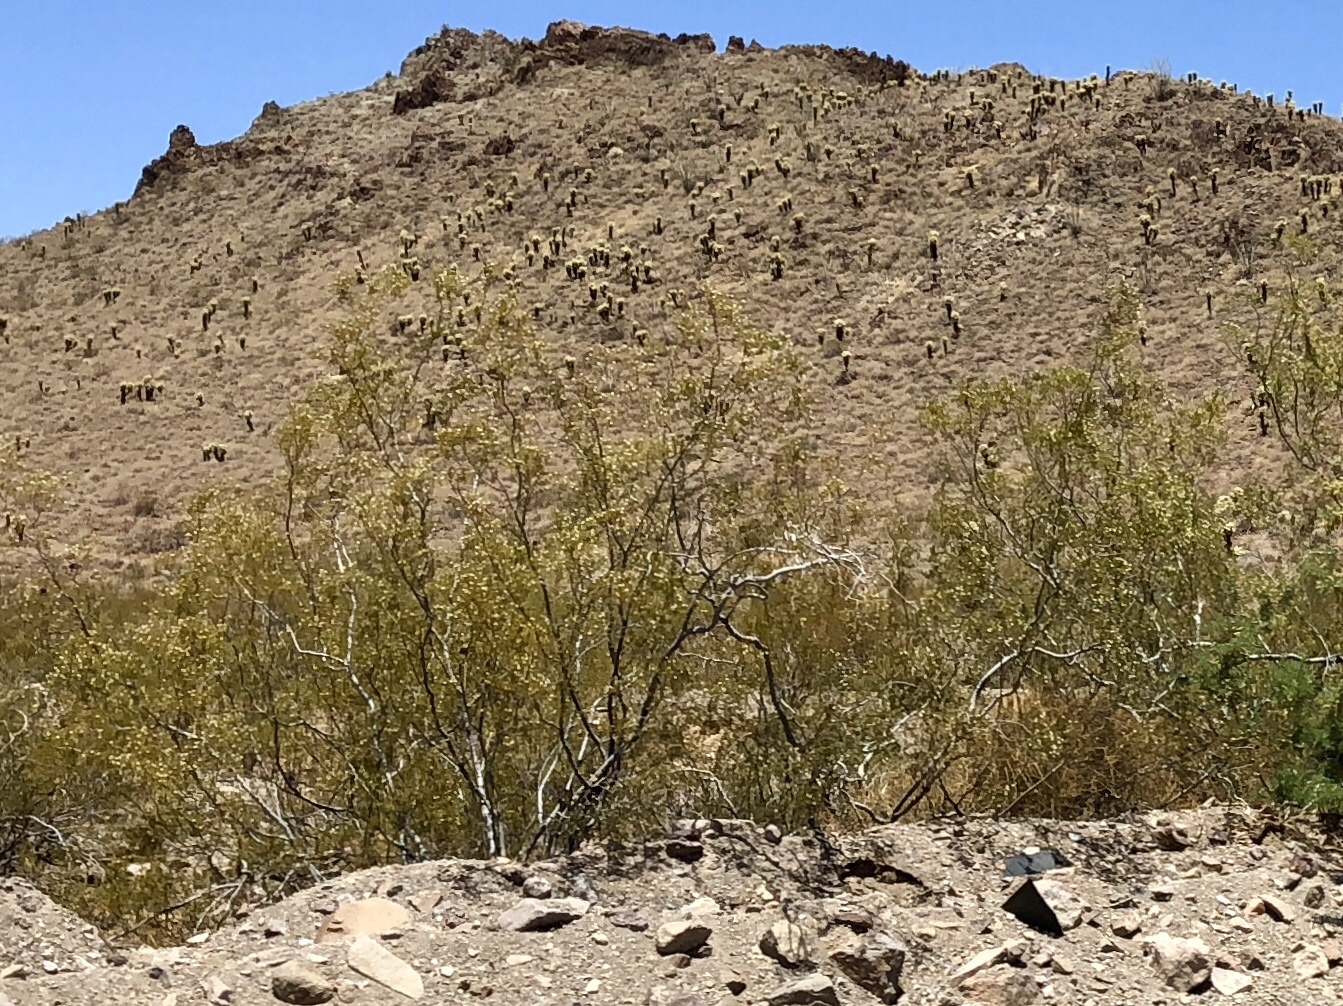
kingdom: Plantae
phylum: Tracheophyta
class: Magnoliopsida
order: Zygophyllales
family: Zygophyllaceae
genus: Larrea
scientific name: Larrea tridentata
